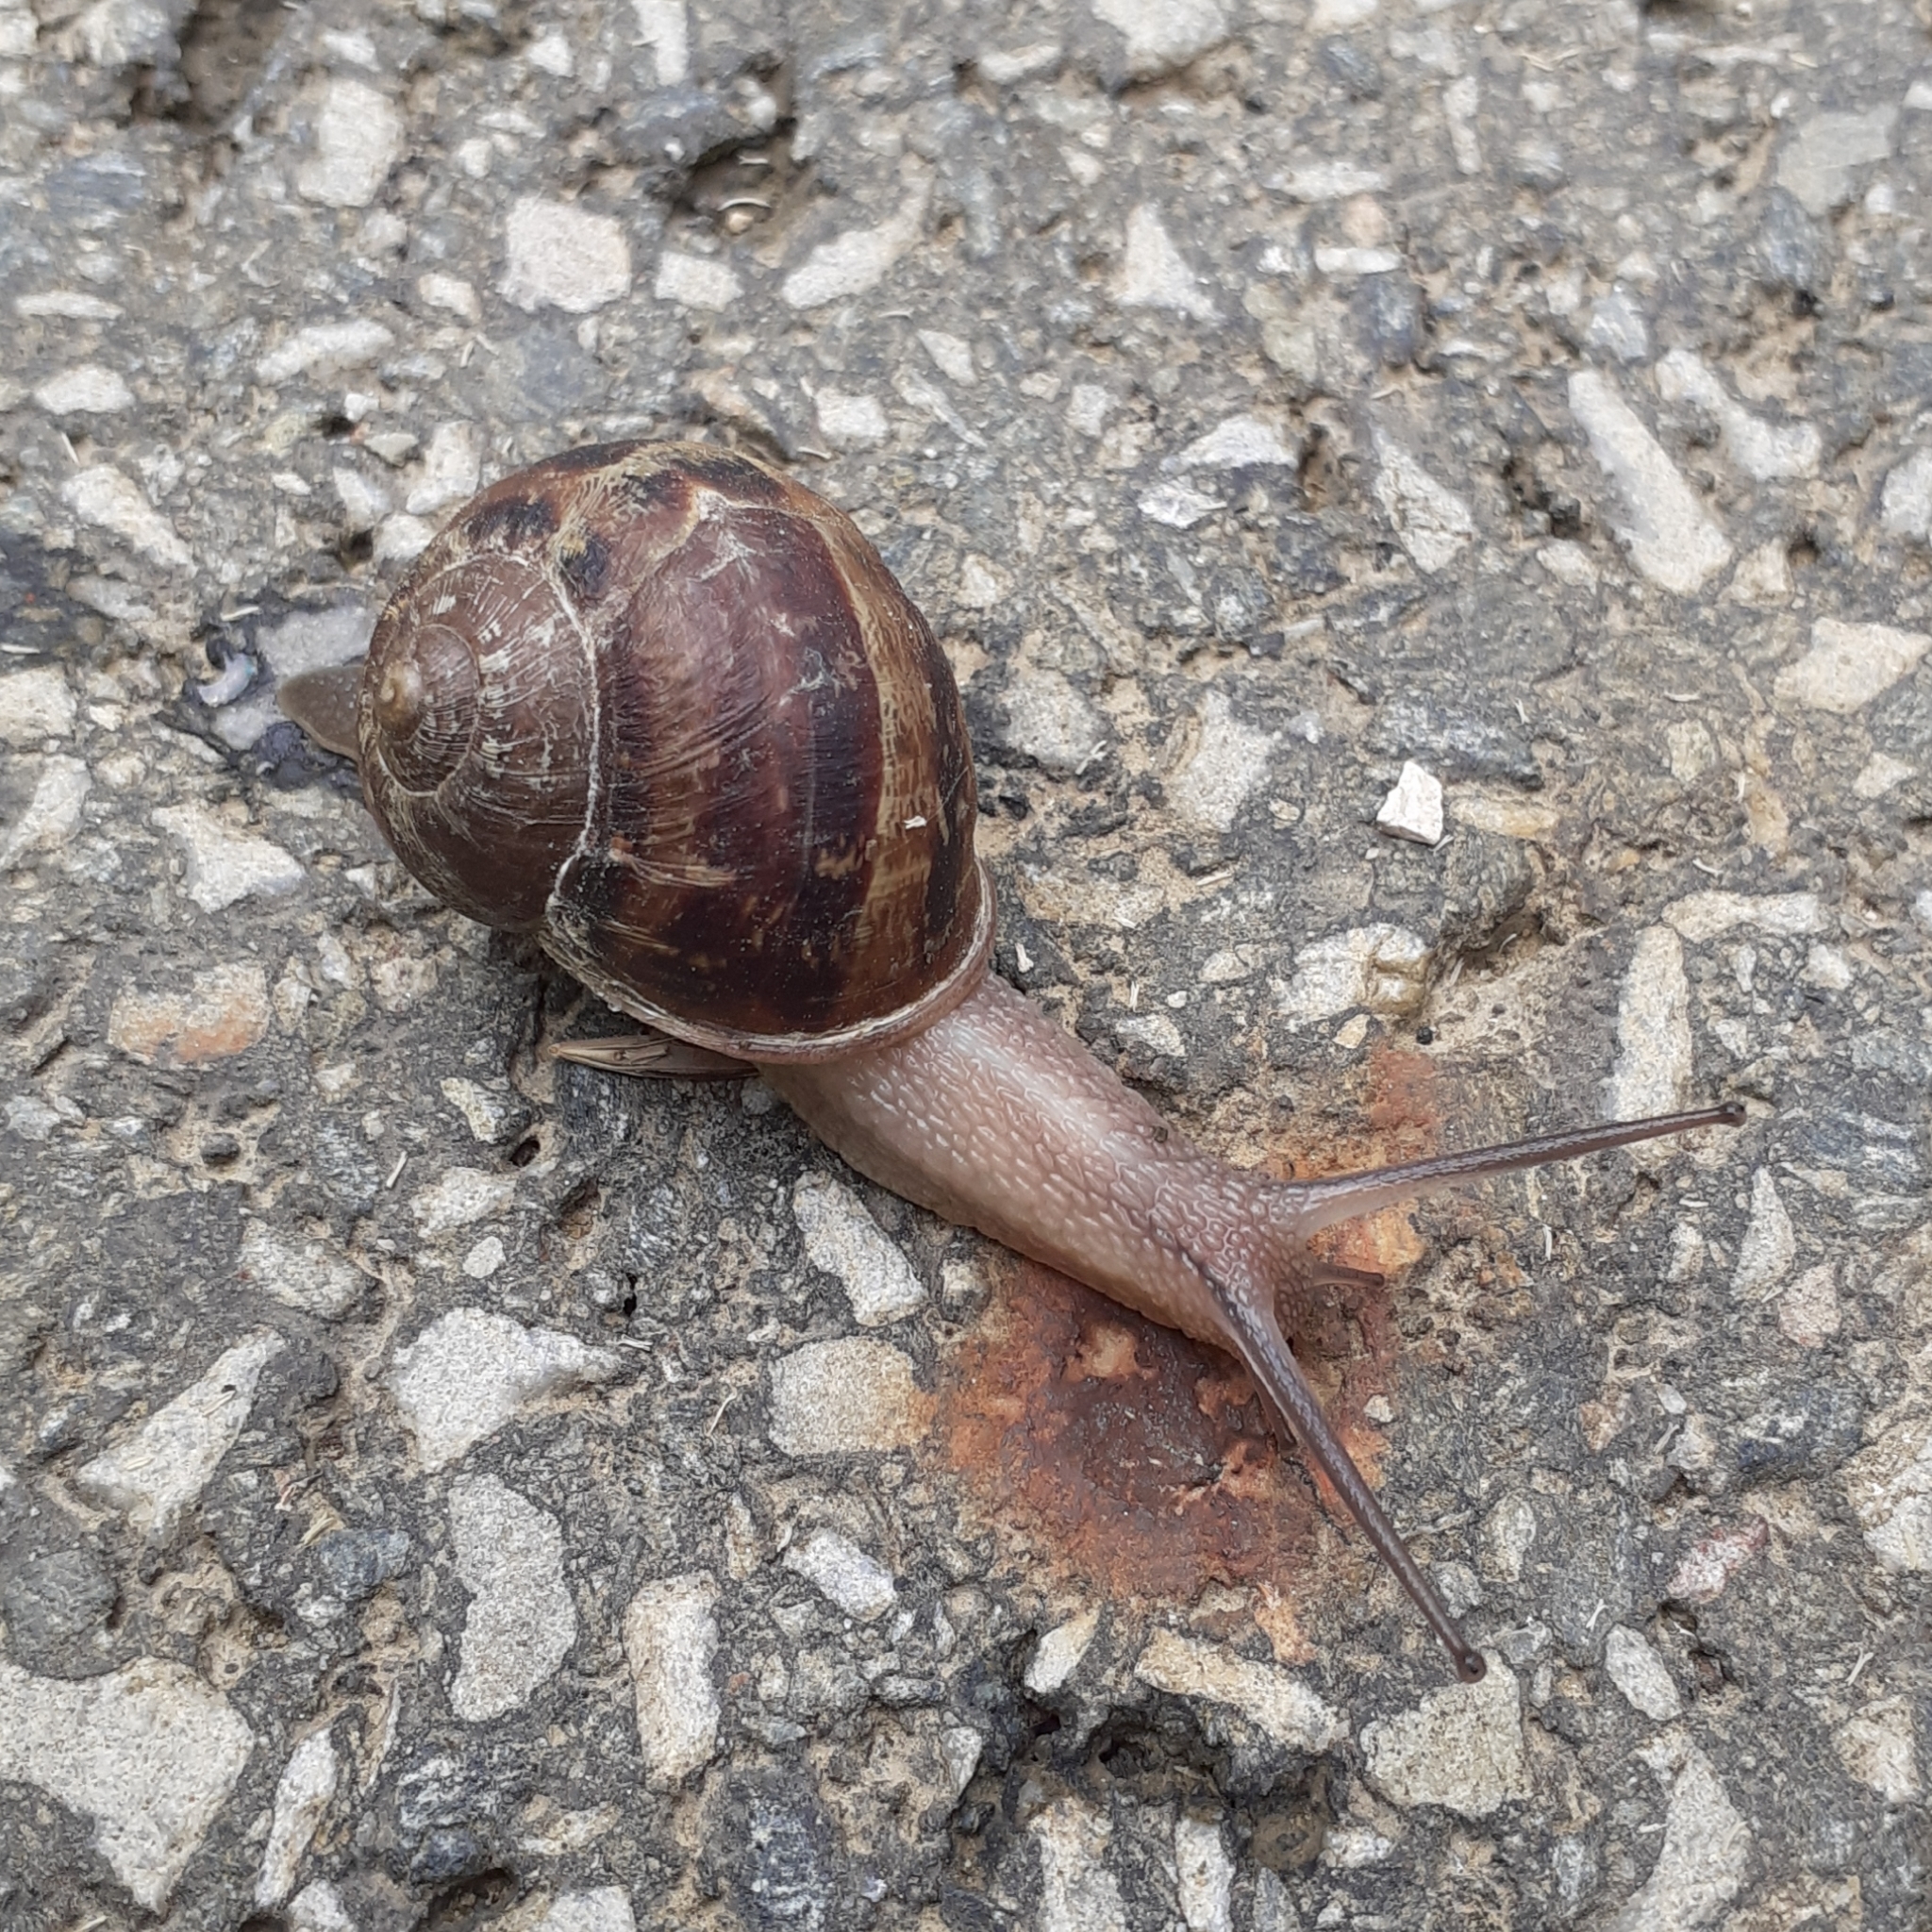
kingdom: Animalia
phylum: Mollusca
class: Gastropoda
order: Stylommatophora
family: Helicidae
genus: Cornu
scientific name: Cornu aspersum
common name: Brown garden snail
